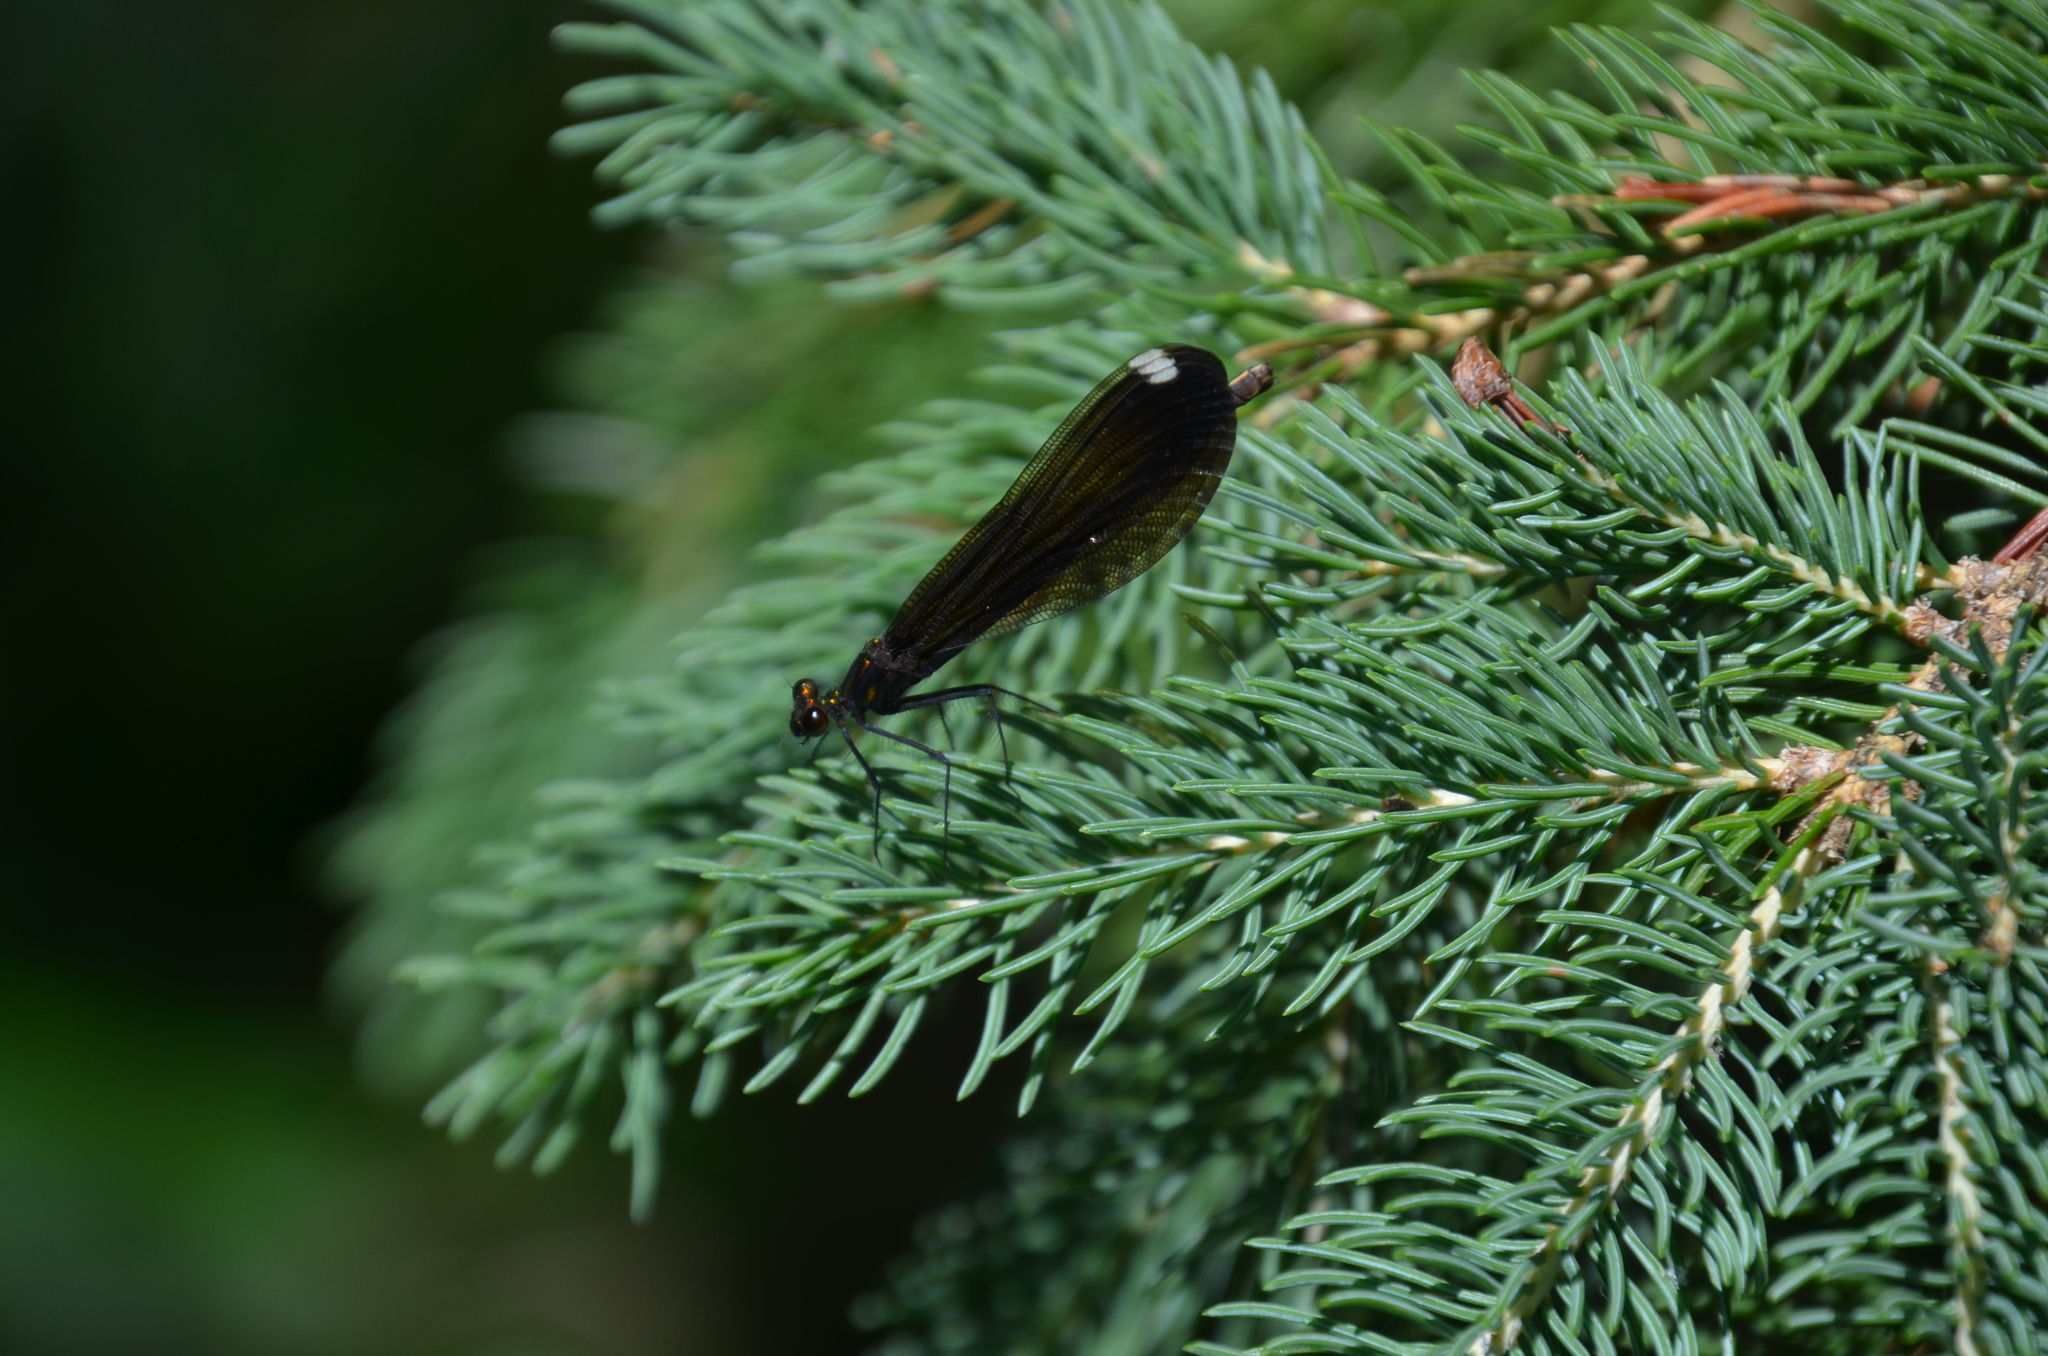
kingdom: Animalia
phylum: Arthropoda
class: Insecta
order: Odonata
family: Calopterygidae
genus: Calopteryx
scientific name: Calopteryx maculata
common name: Ebony jewelwing
